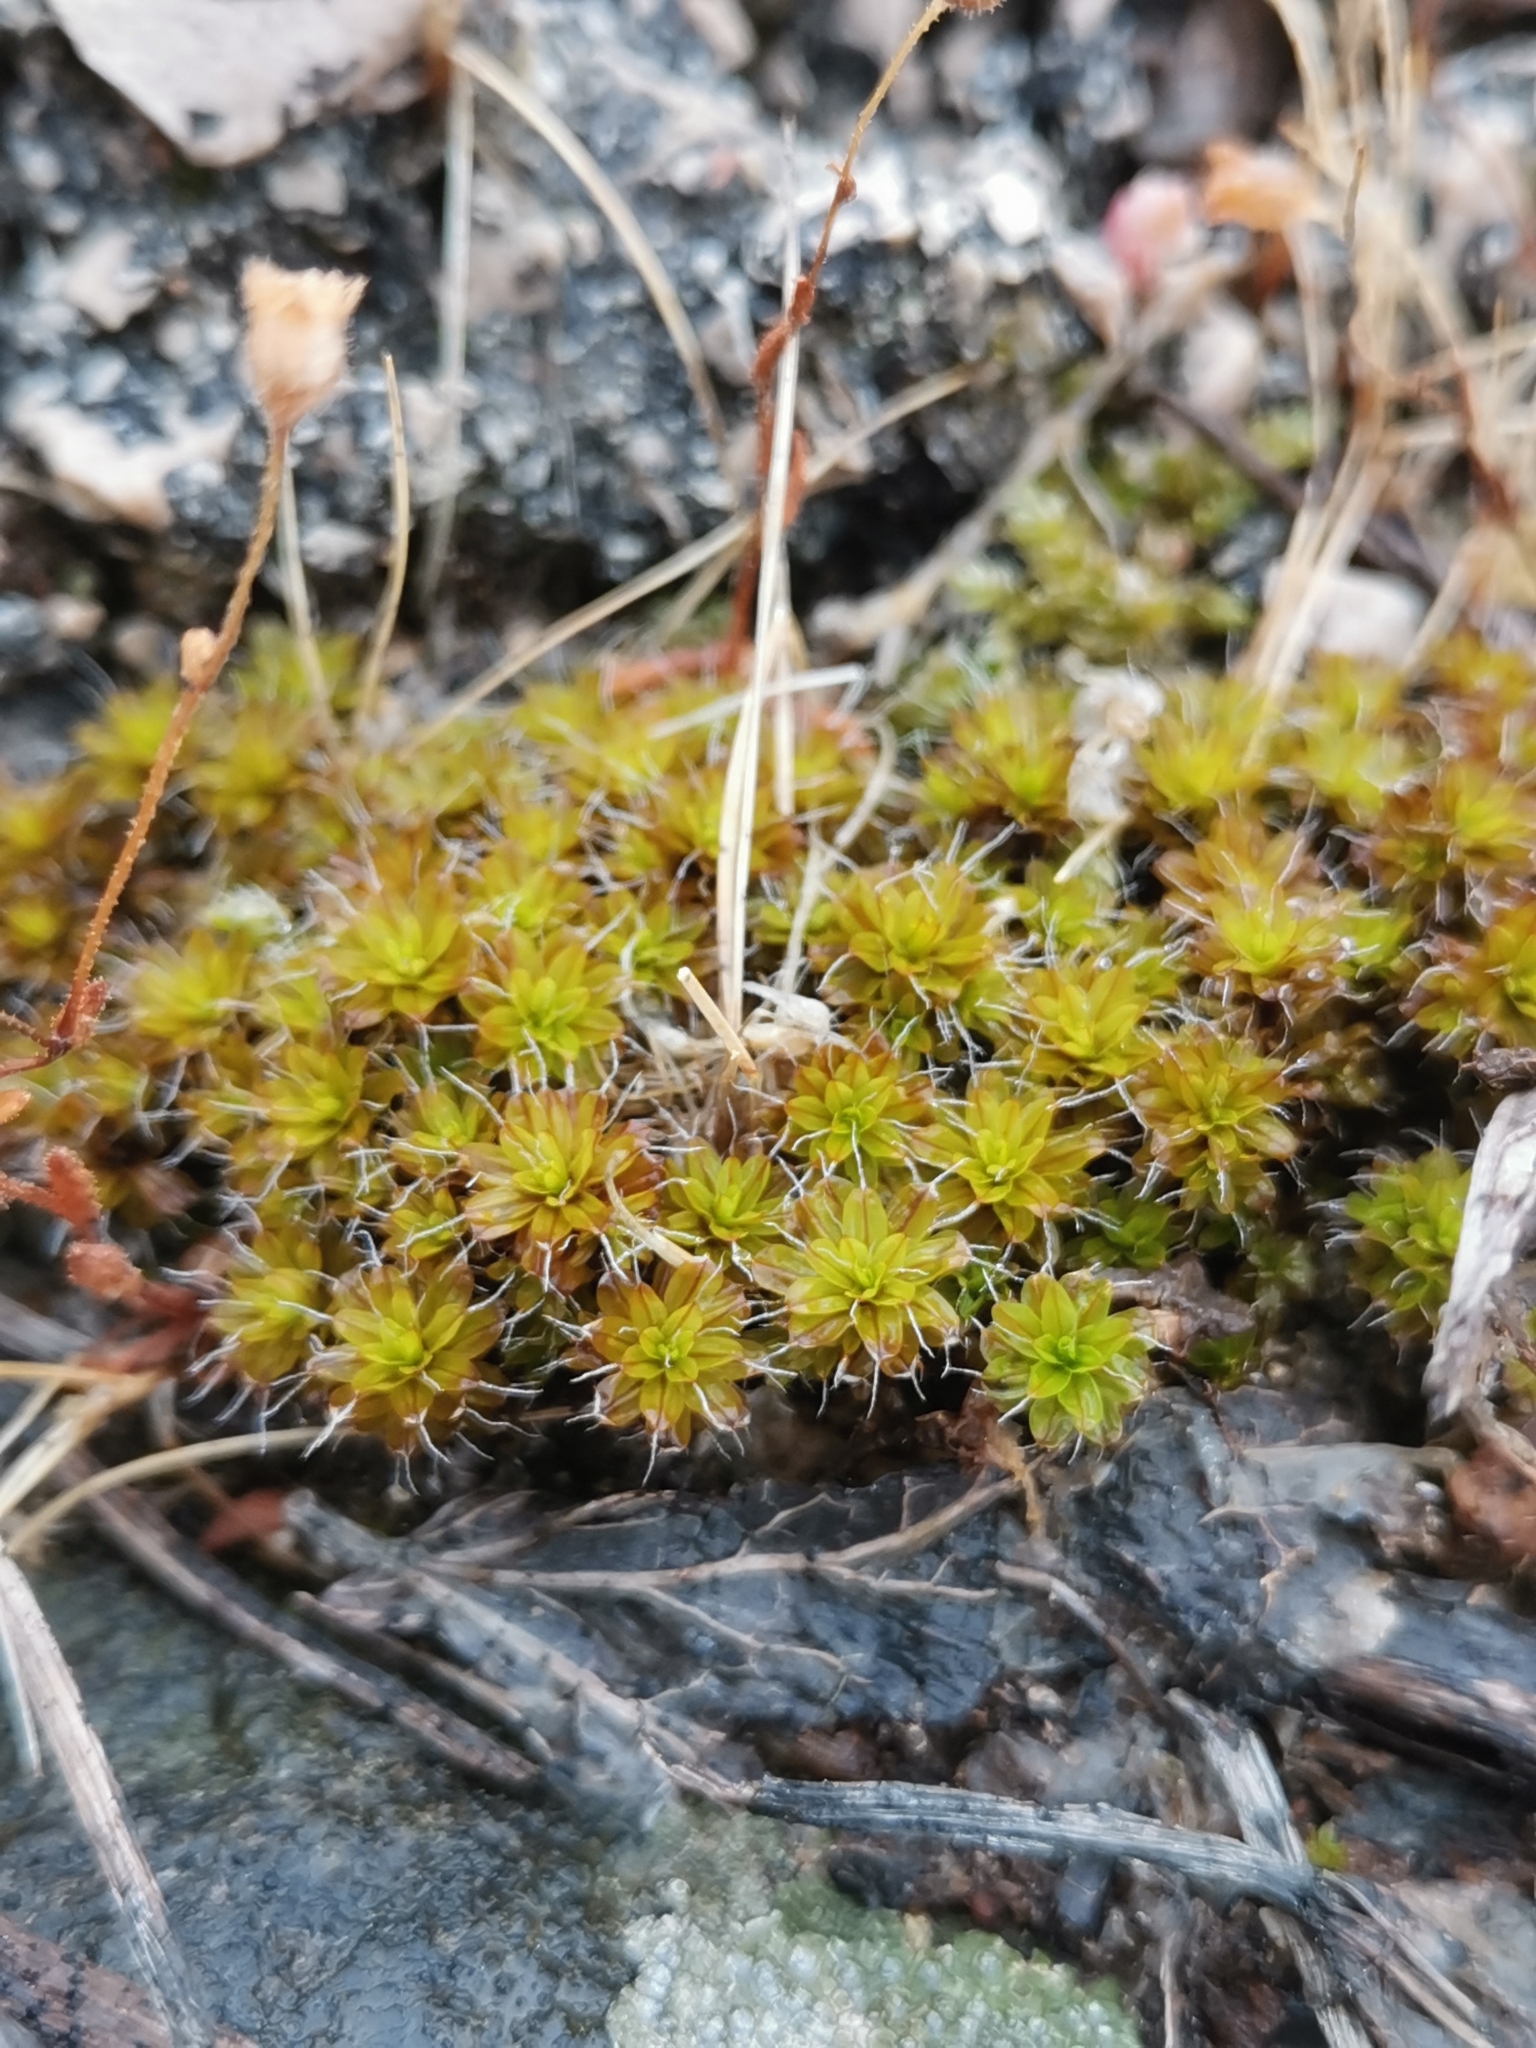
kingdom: Plantae
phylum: Bryophyta
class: Bryopsida
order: Pottiales
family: Pottiaceae
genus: Syntrichia
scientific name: Syntrichia ruralis
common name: Sidewalk screw moss
